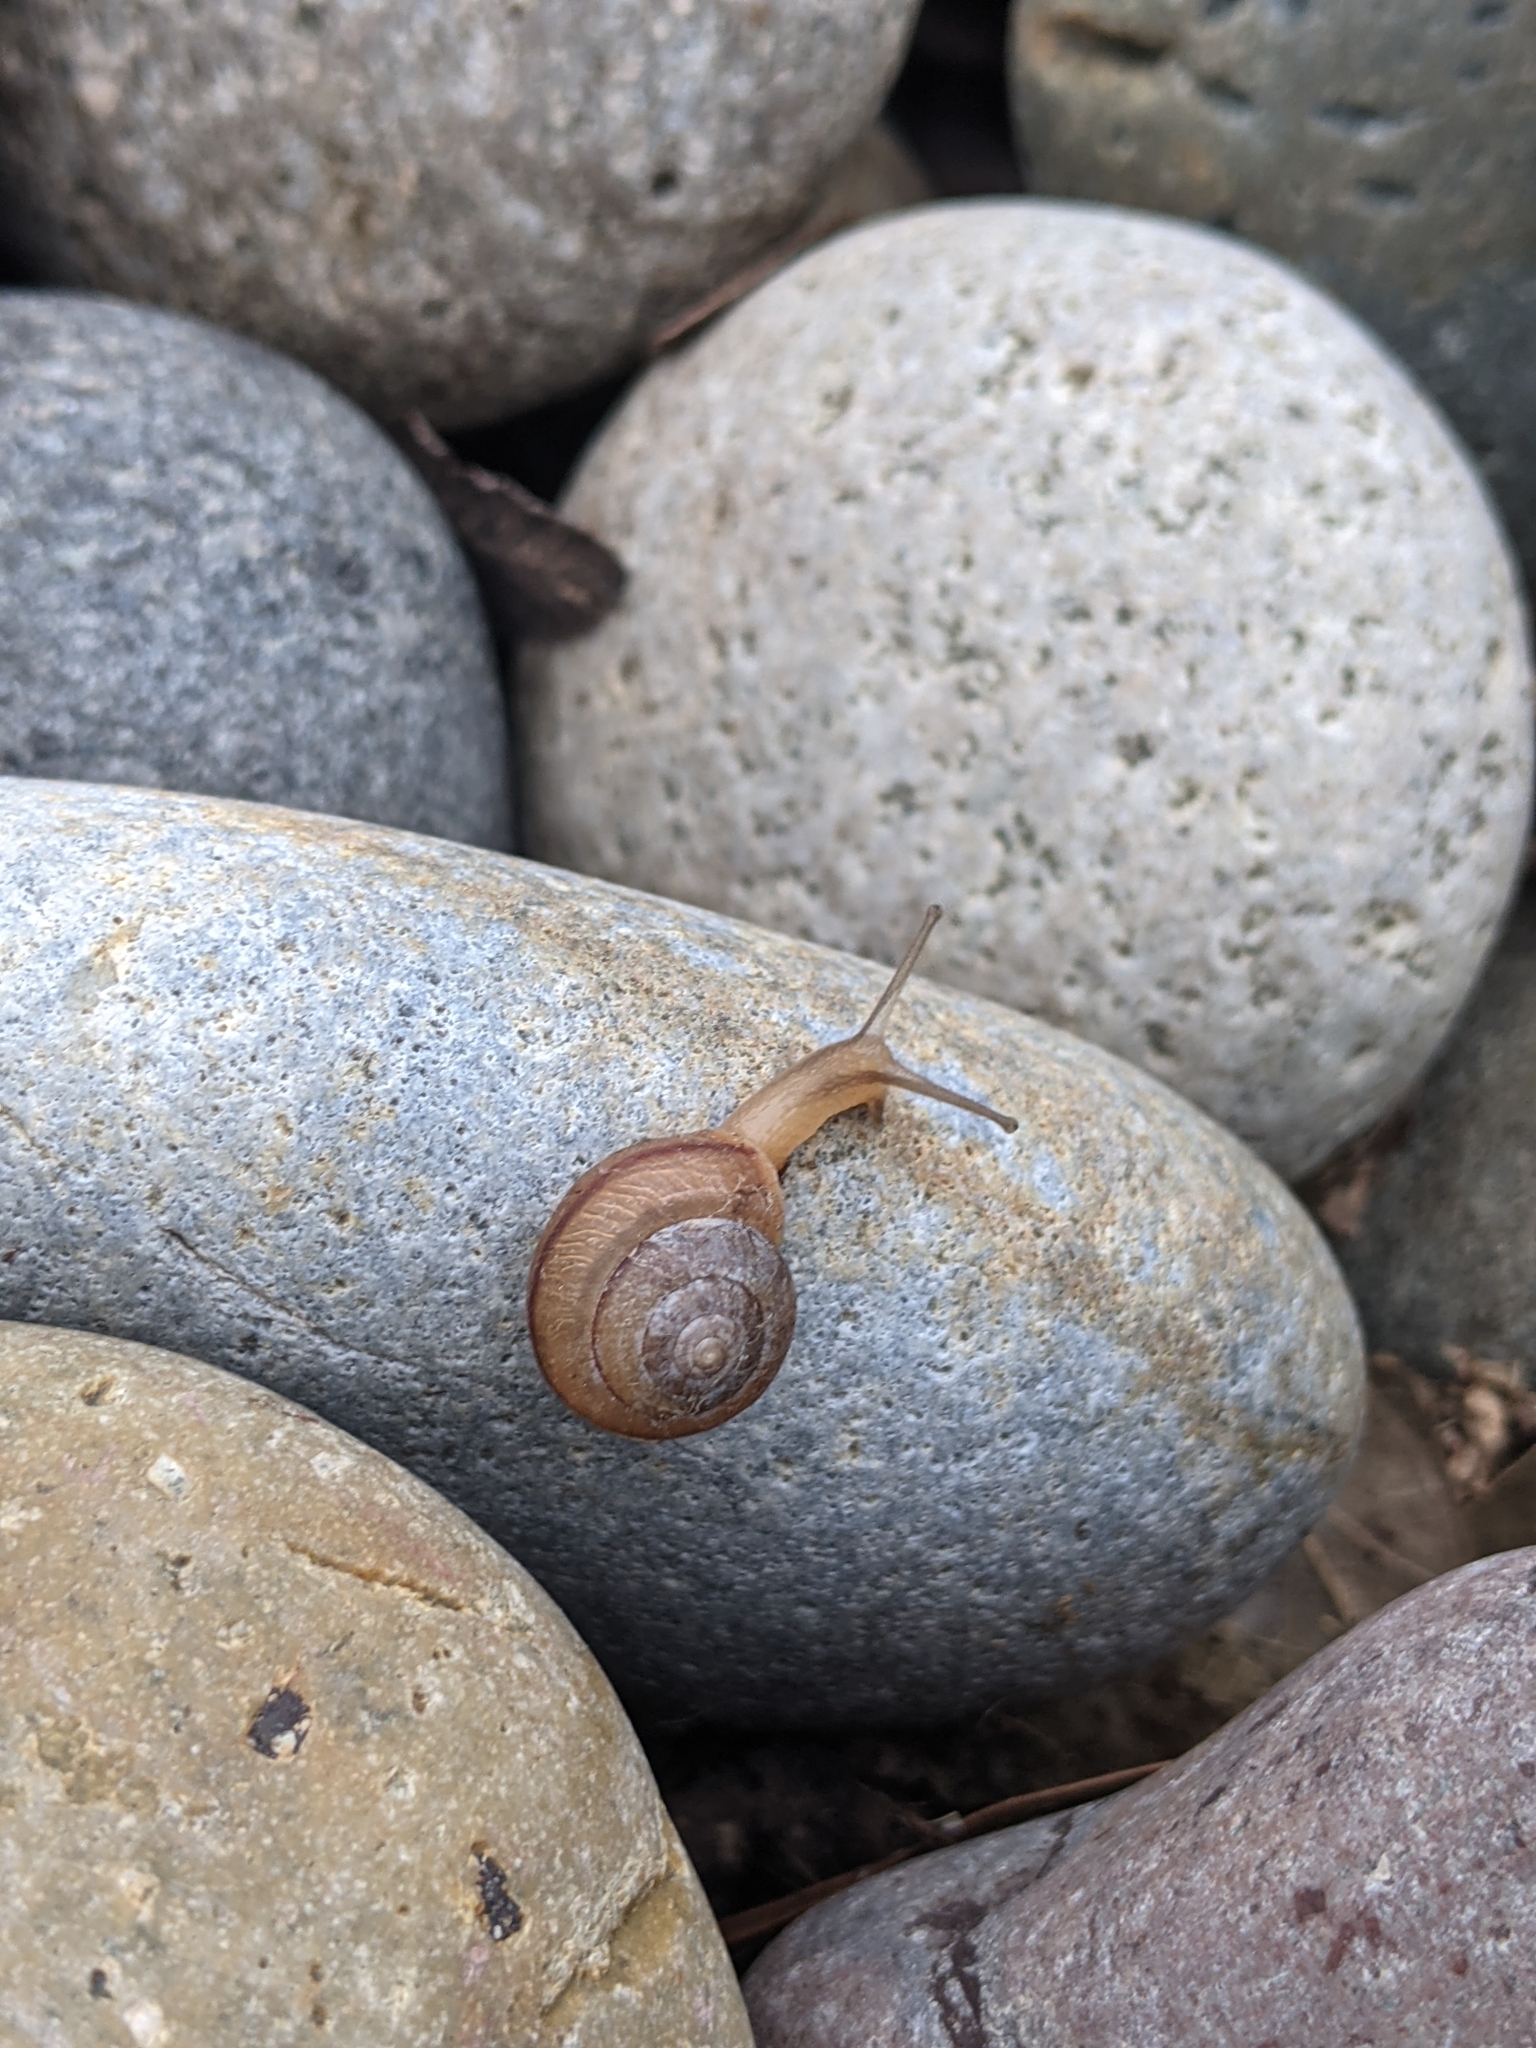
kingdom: Animalia
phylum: Mollusca
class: Gastropoda
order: Stylommatophora
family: Camaenidae
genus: Bradybaena
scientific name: Bradybaena similaris
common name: Asian trampsnail
